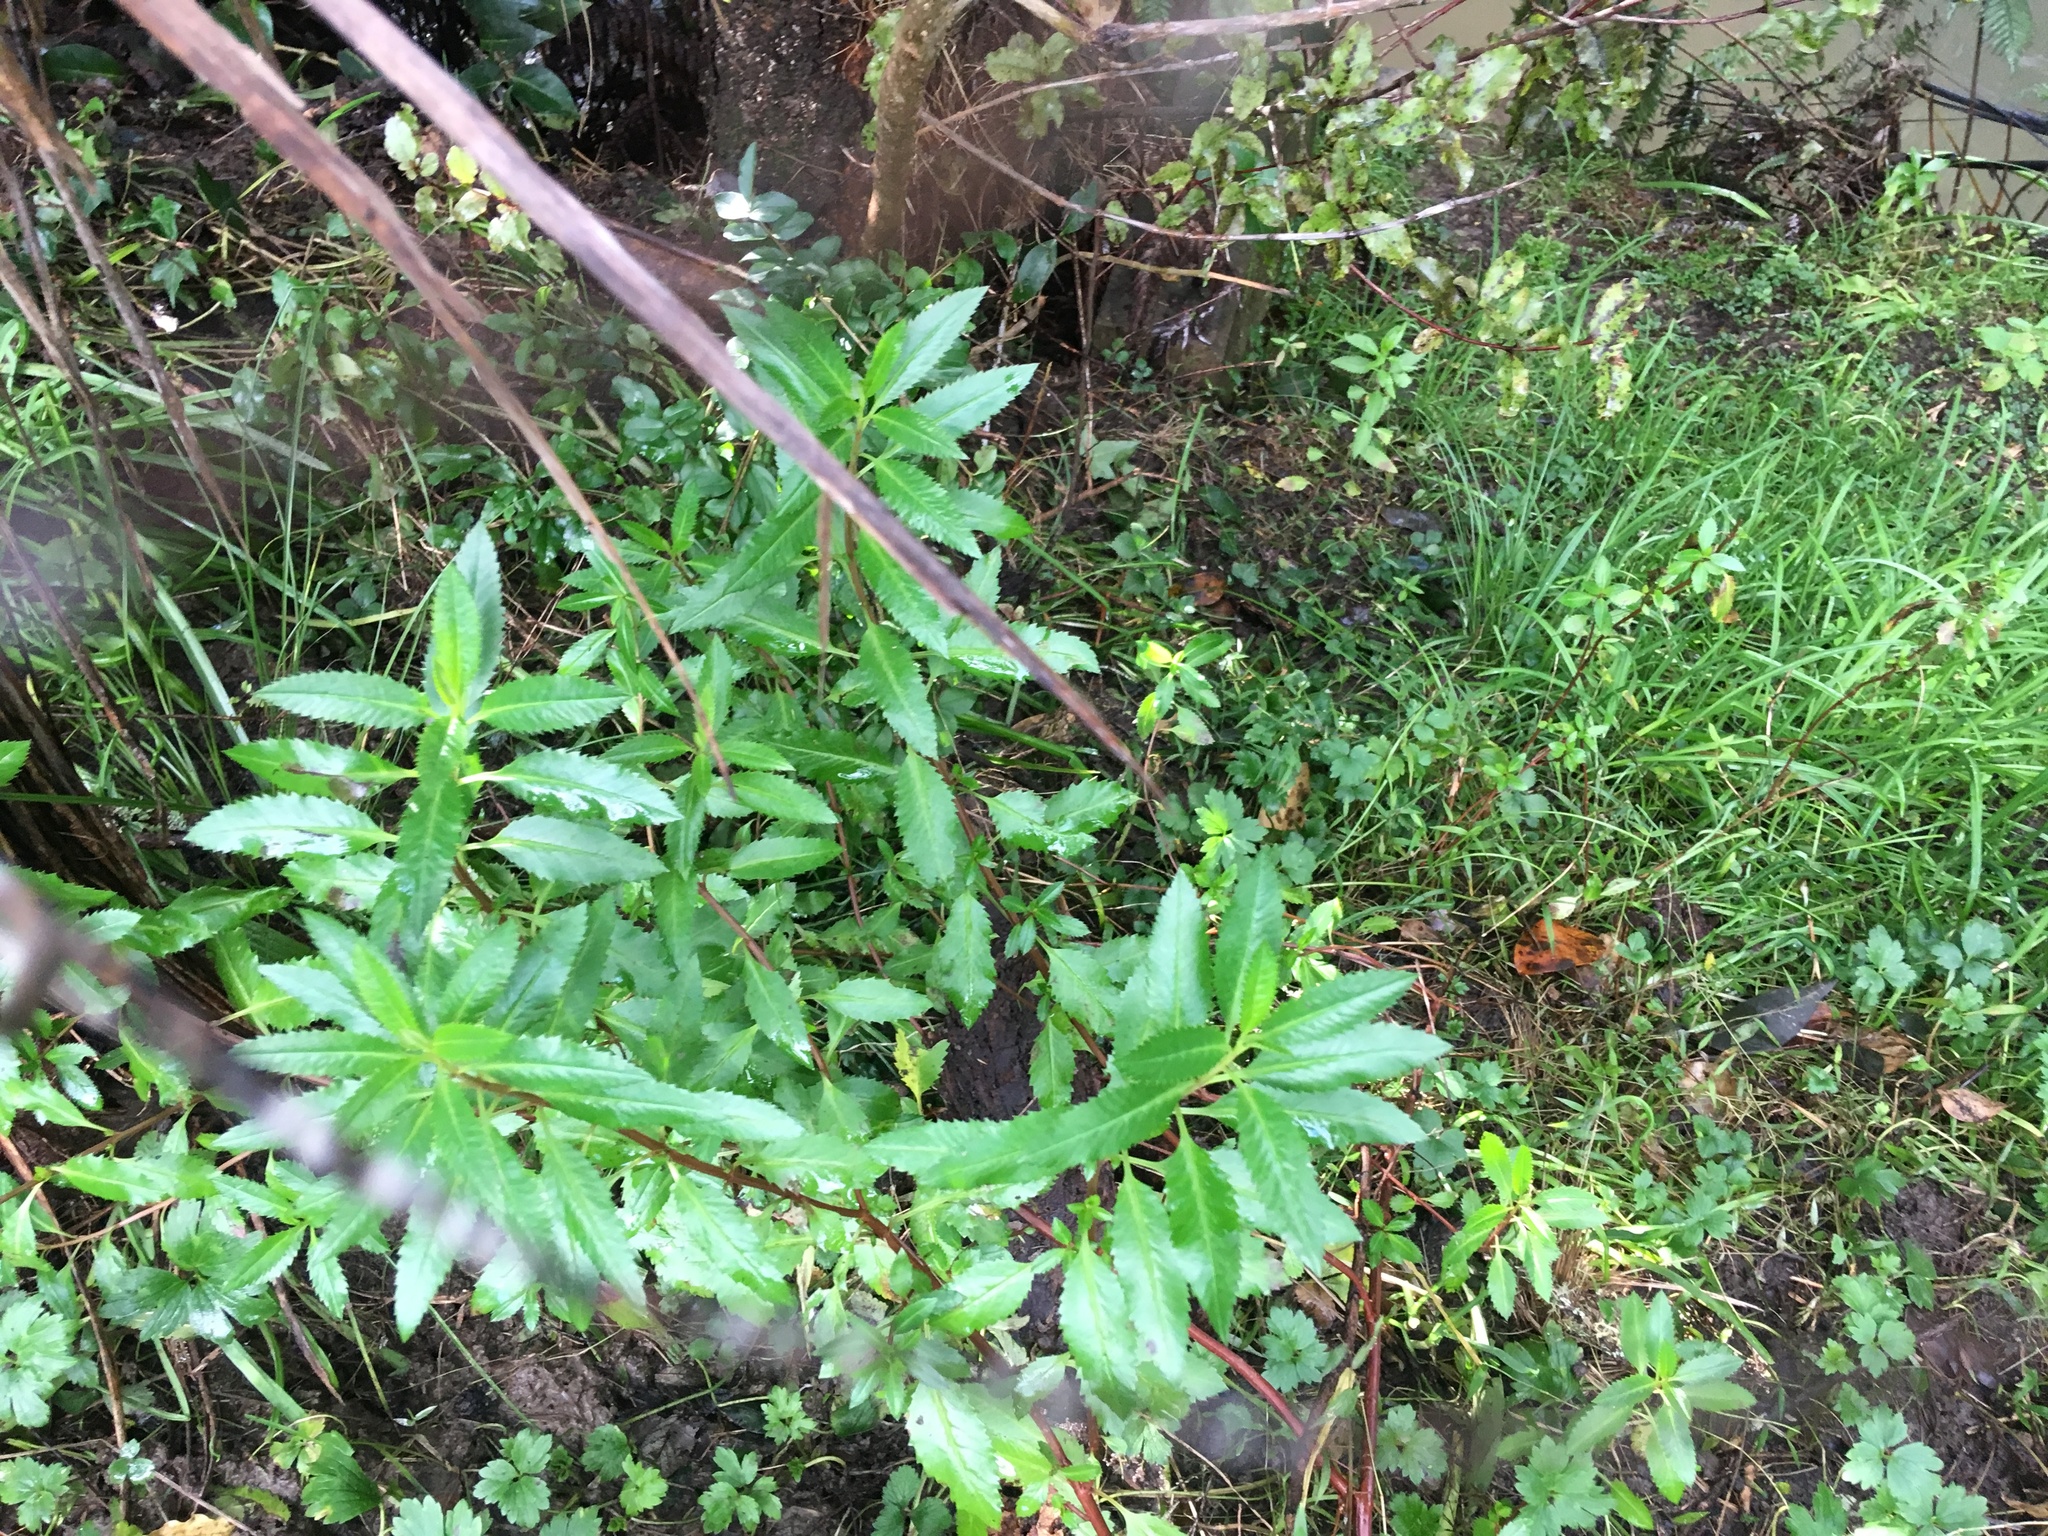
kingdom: Plantae
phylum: Tracheophyta
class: Magnoliopsida
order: Saxifragales
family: Haloragaceae
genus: Haloragis
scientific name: Haloragis erecta
